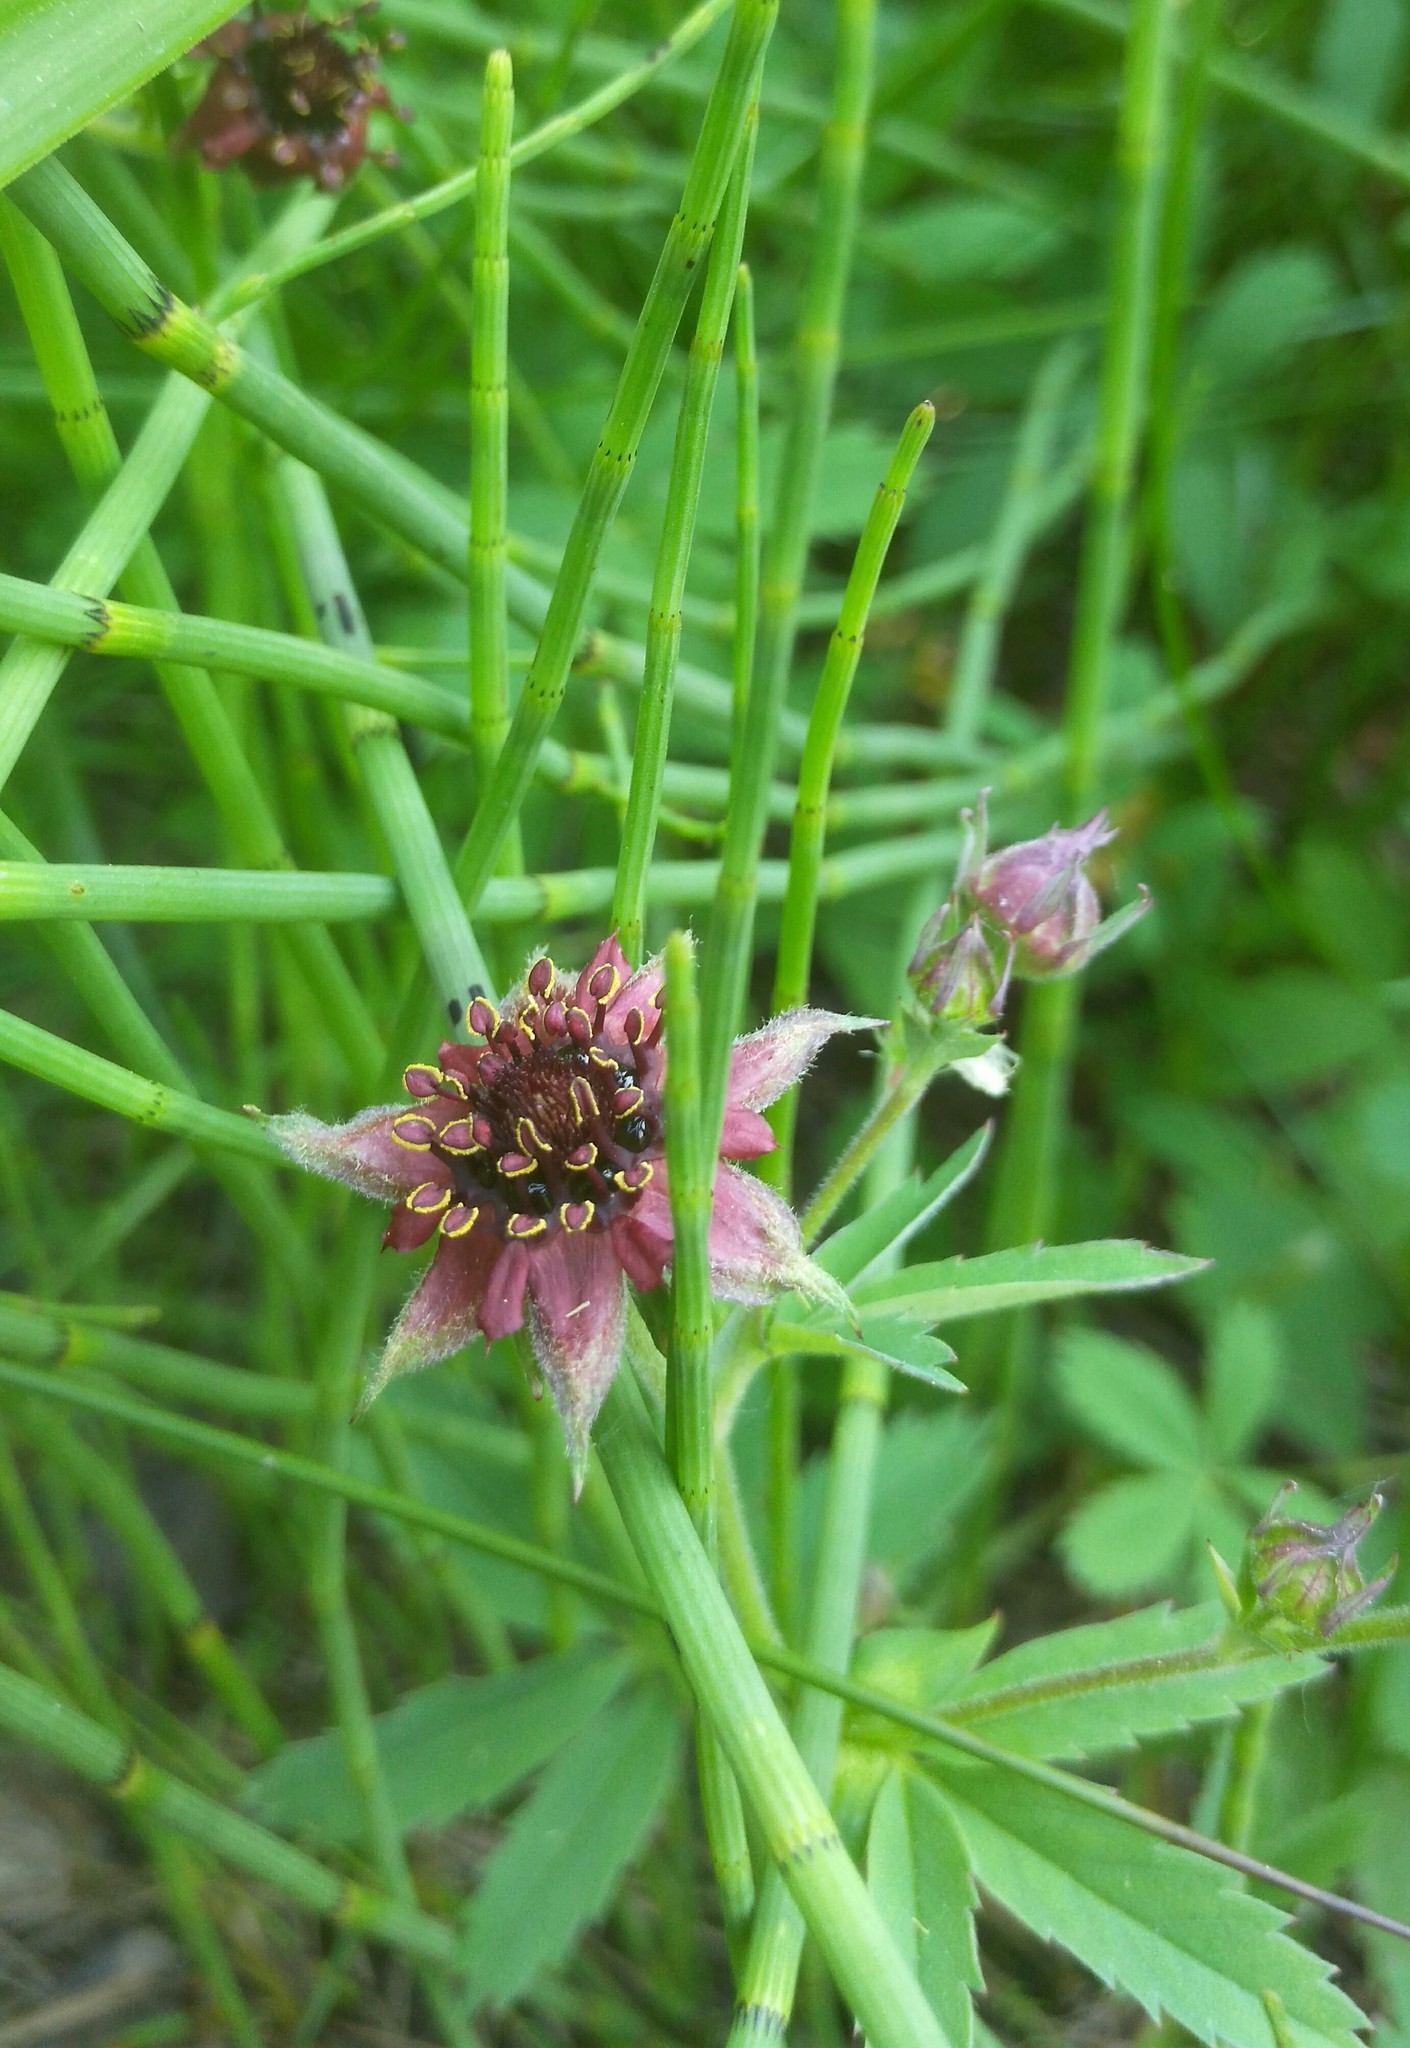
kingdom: Plantae
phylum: Tracheophyta
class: Magnoliopsida
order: Rosales
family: Rosaceae
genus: Comarum
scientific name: Comarum palustre
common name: Marsh cinquefoil
